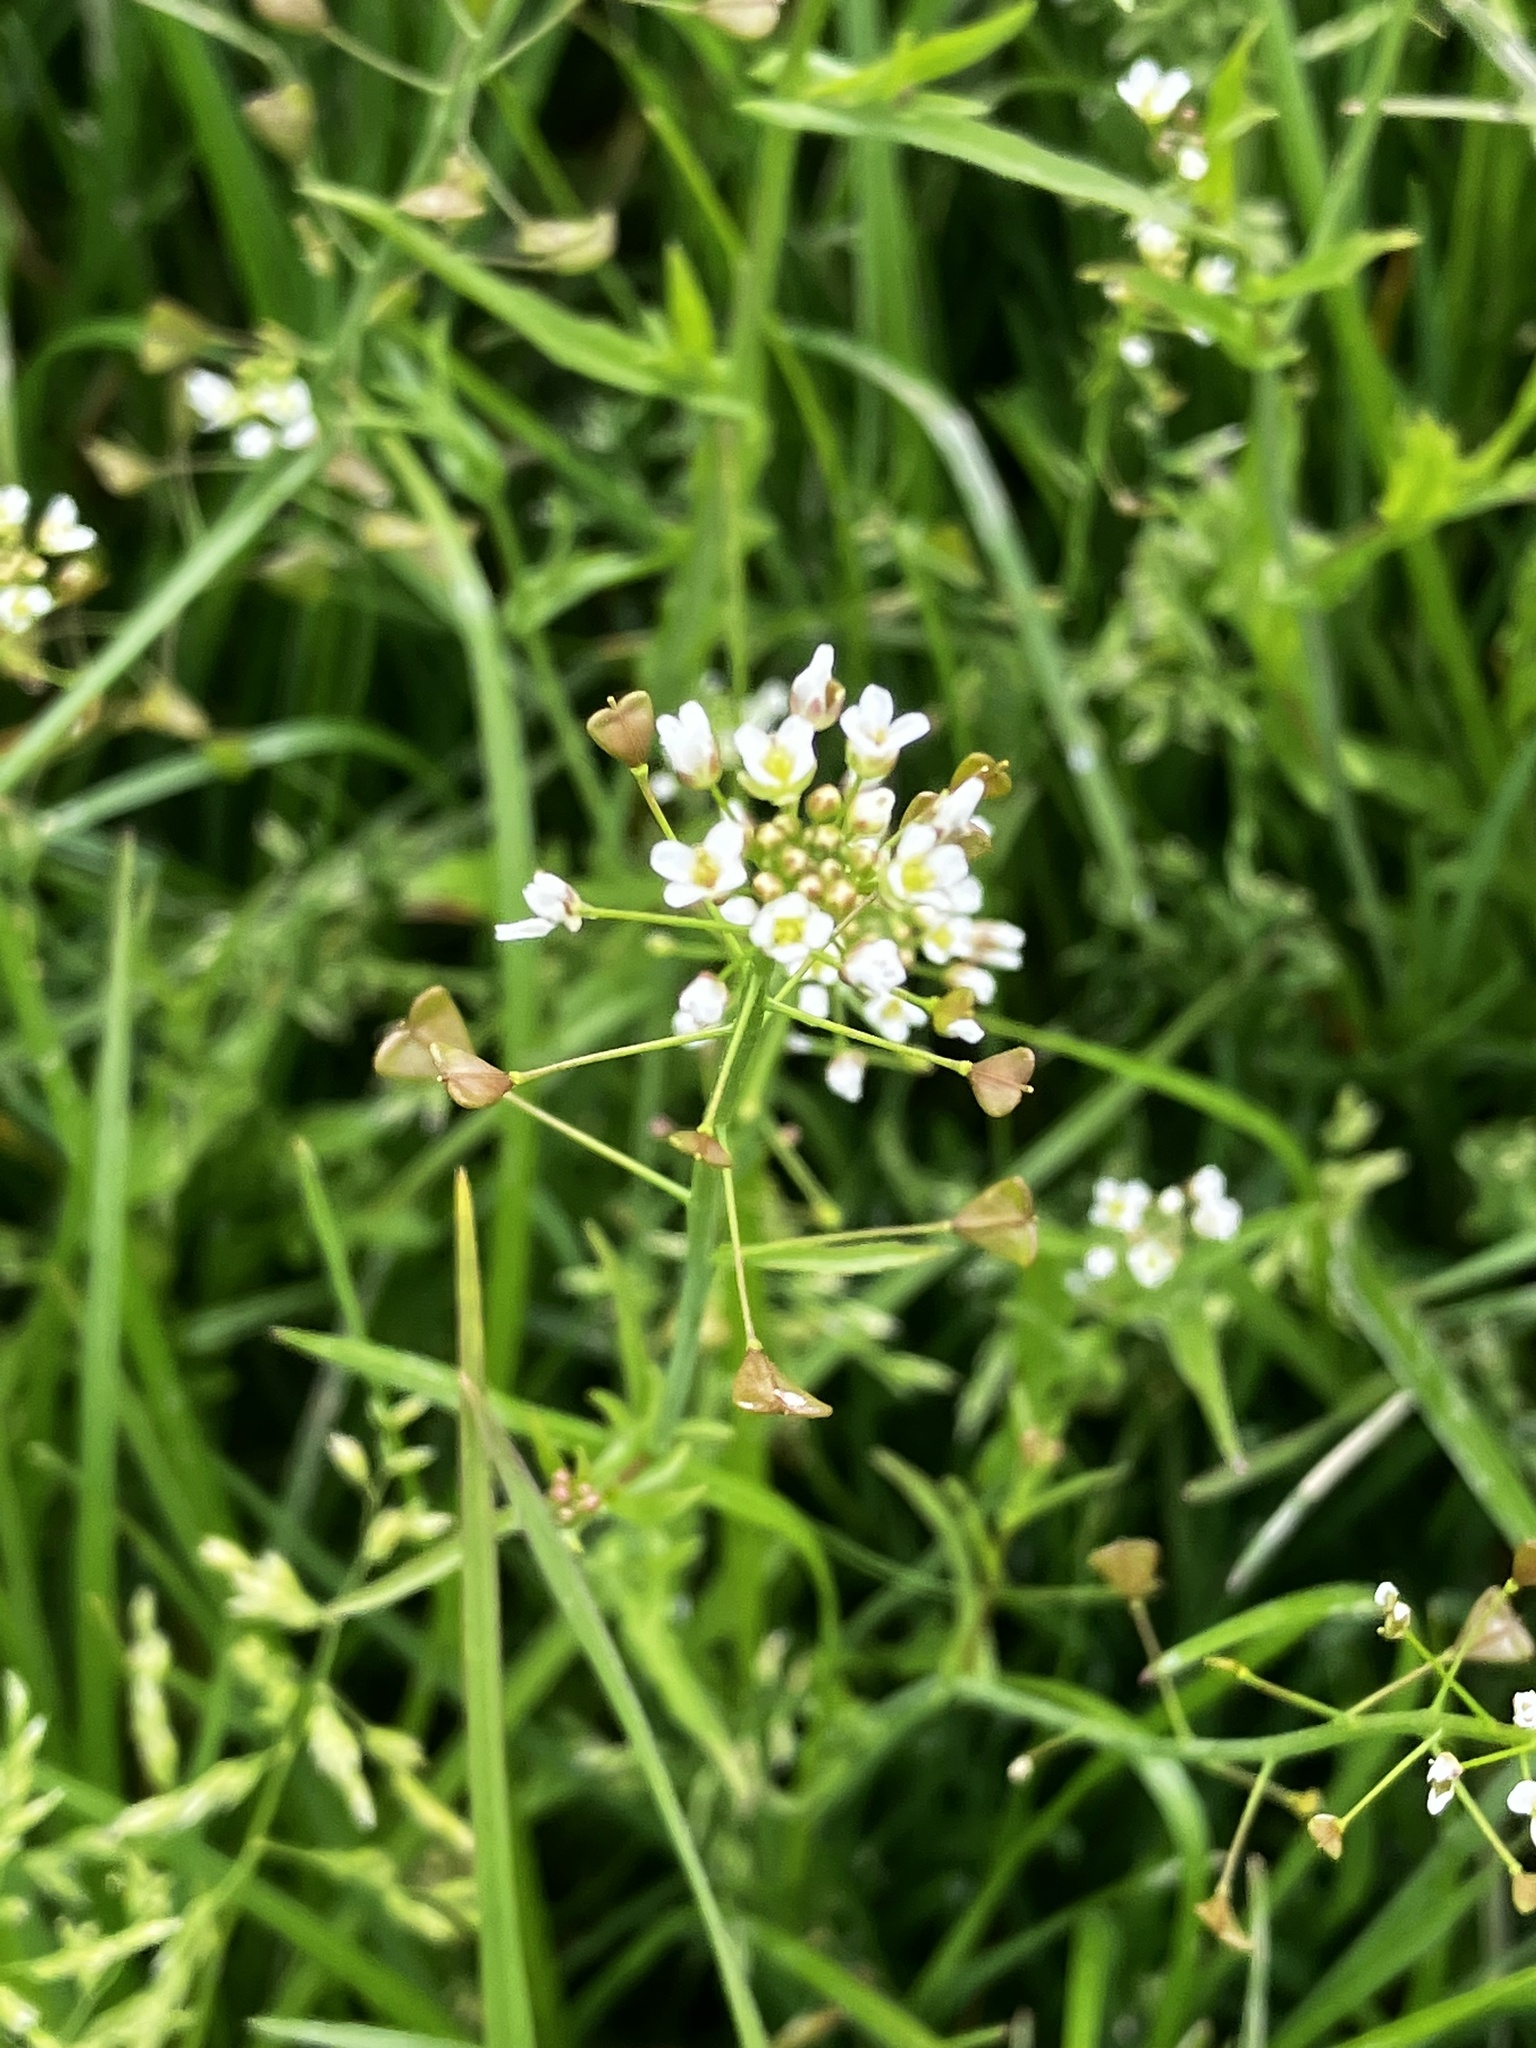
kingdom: Plantae
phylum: Tracheophyta
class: Magnoliopsida
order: Brassicales
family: Brassicaceae
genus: Capsella
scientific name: Capsella bursa-pastoris
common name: Shepherd's purse
